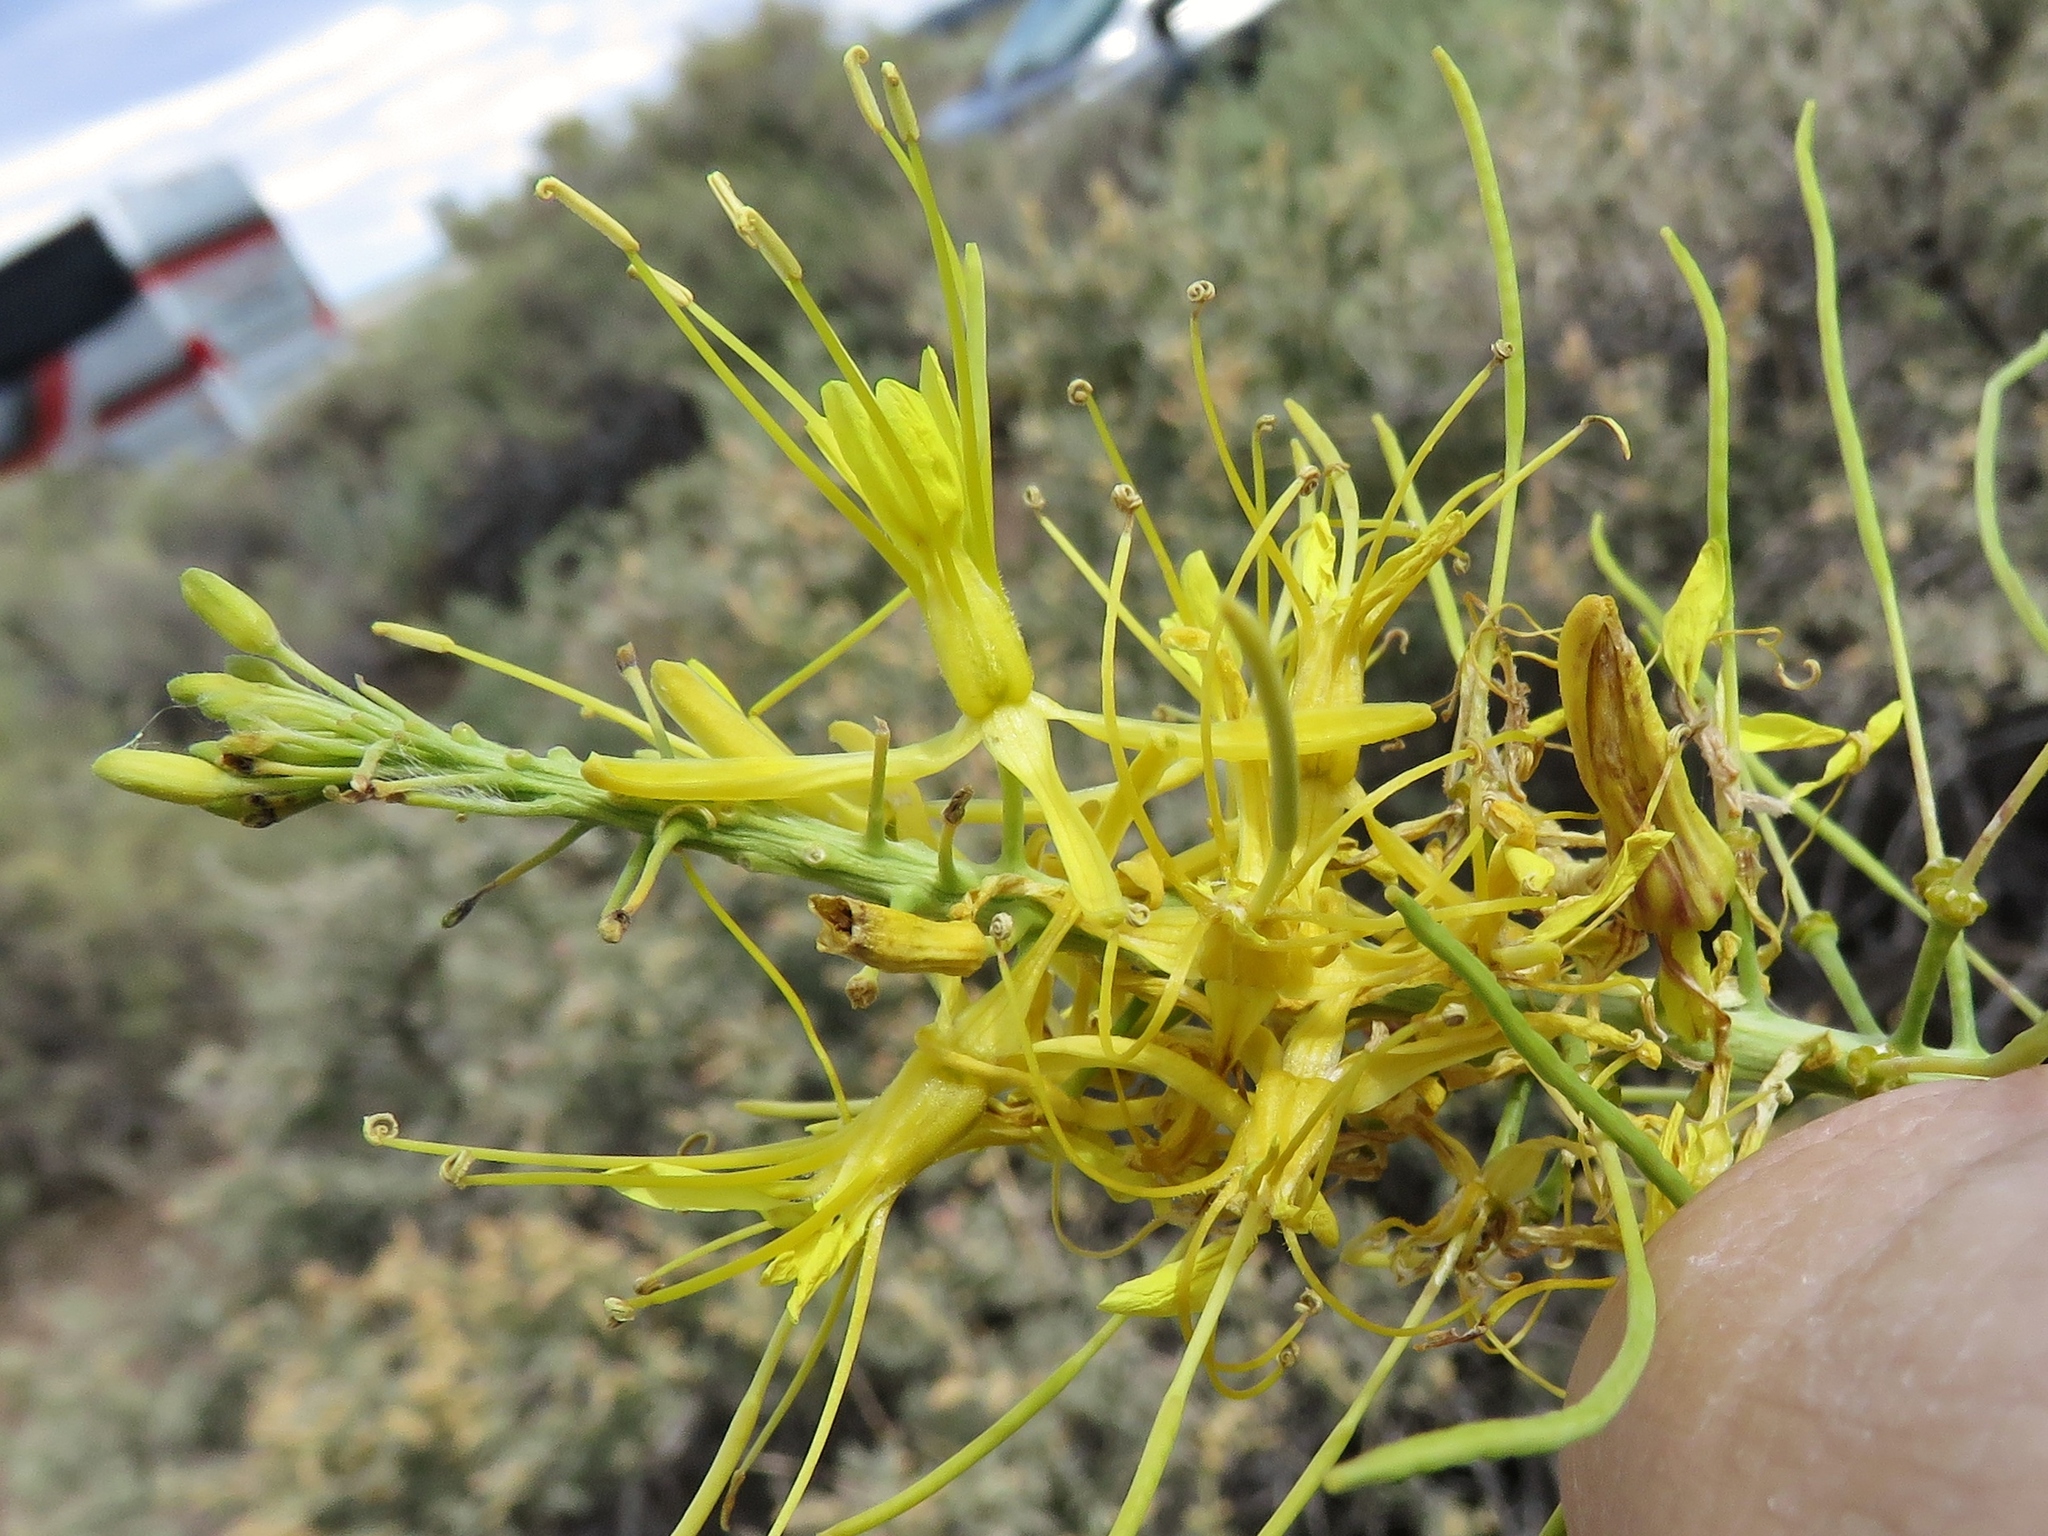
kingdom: Plantae
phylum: Tracheophyta
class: Magnoliopsida
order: Brassicales
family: Brassicaceae
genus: Stanleya
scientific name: Stanleya pinnata
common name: Prince's-plume
